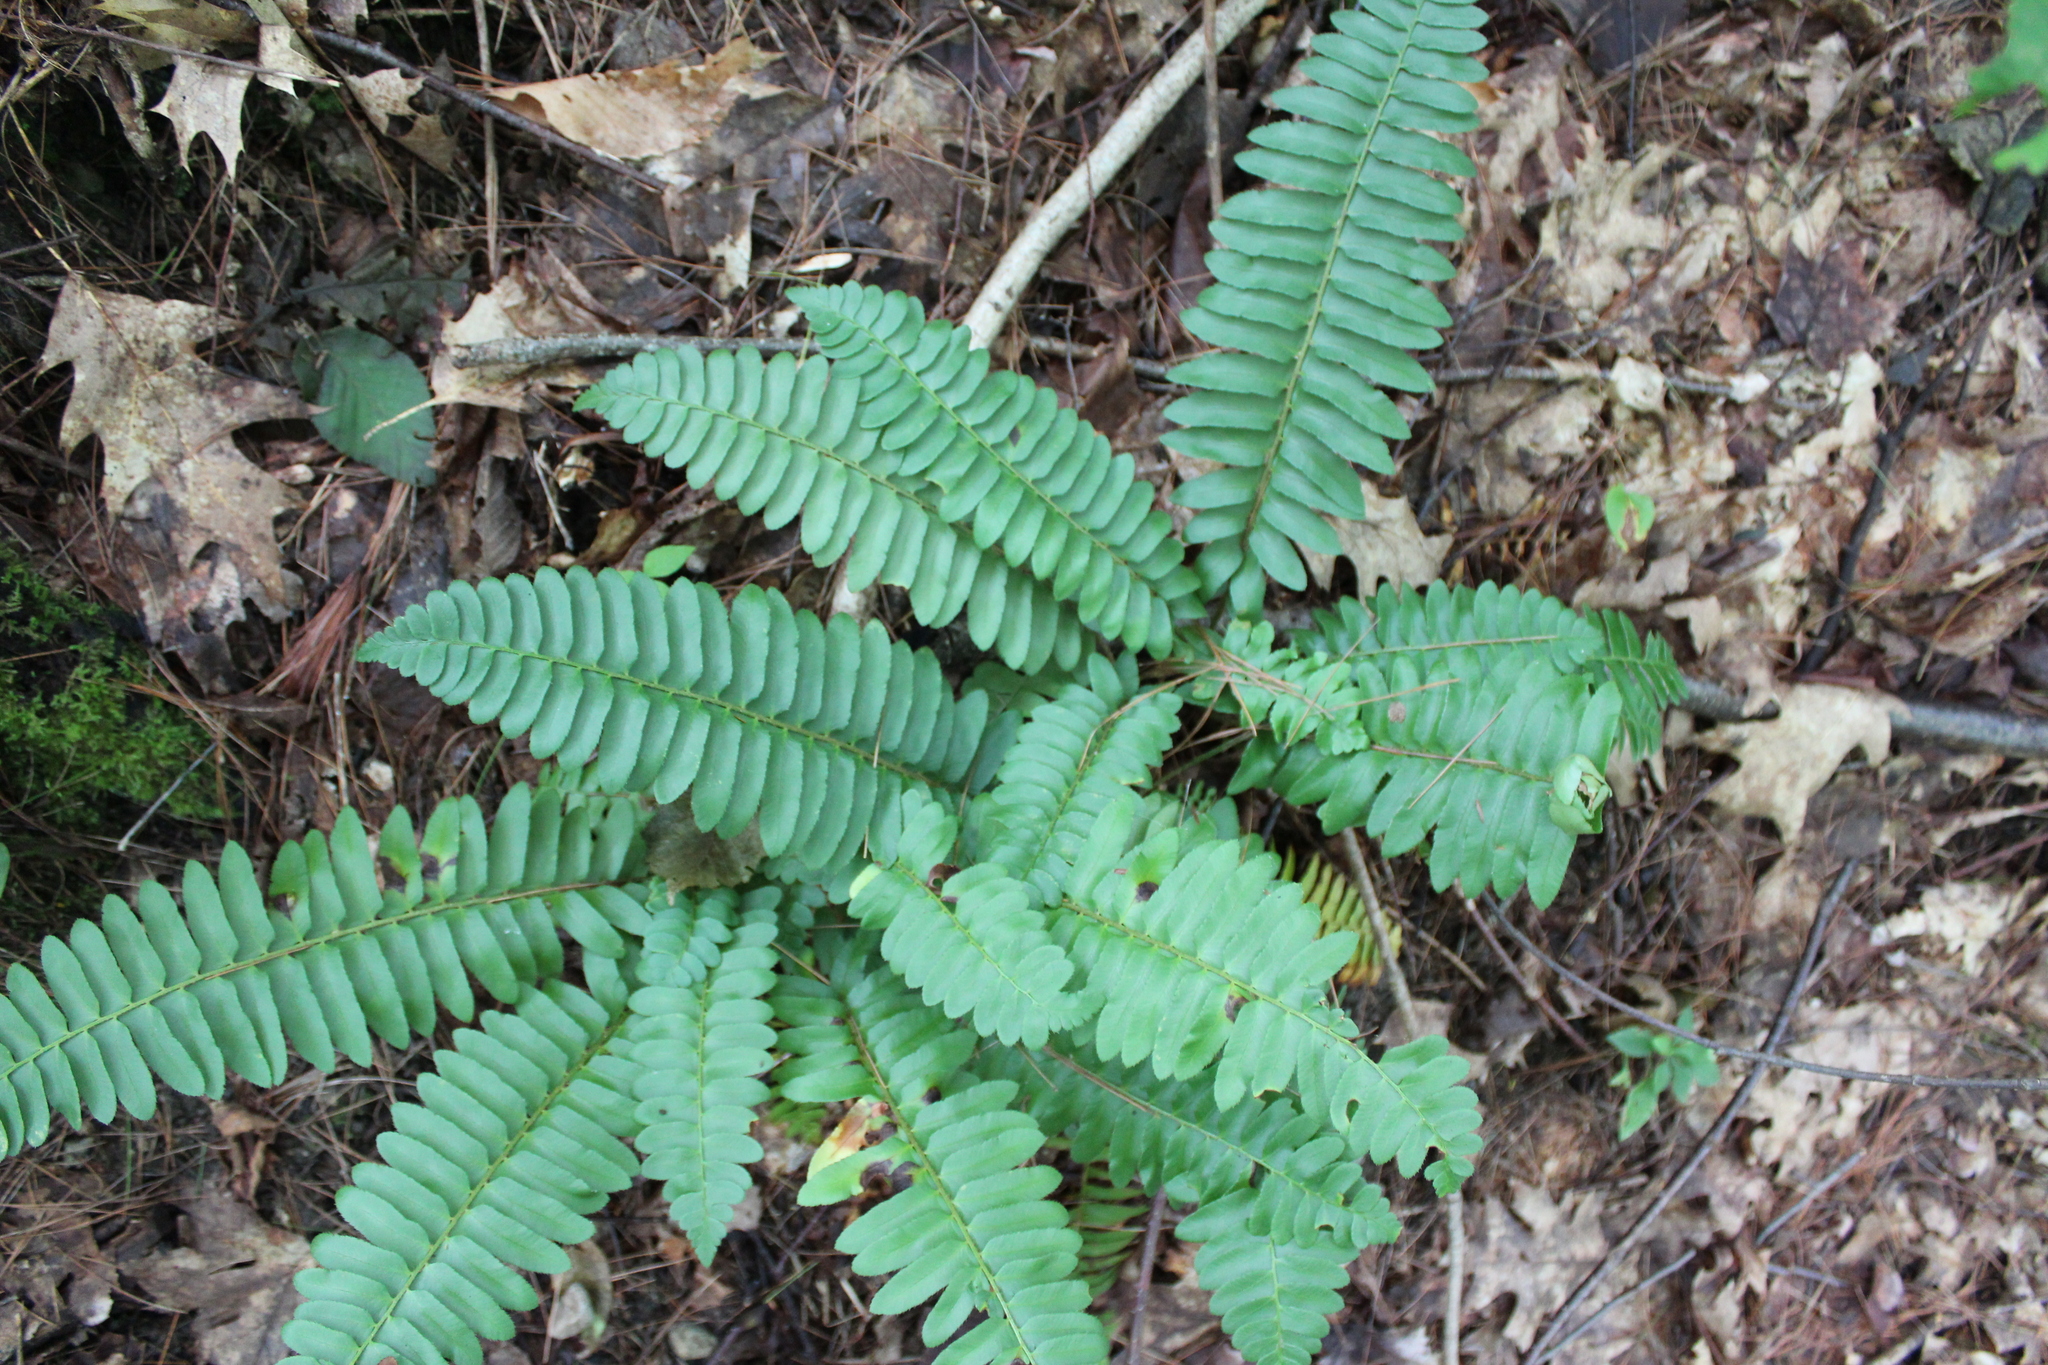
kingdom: Plantae
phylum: Tracheophyta
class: Polypodiopsida
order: Polypodiales
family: Dryopteridaceae
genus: Polystichum
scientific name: Polystichum acrostichoides
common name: Christmas fern
